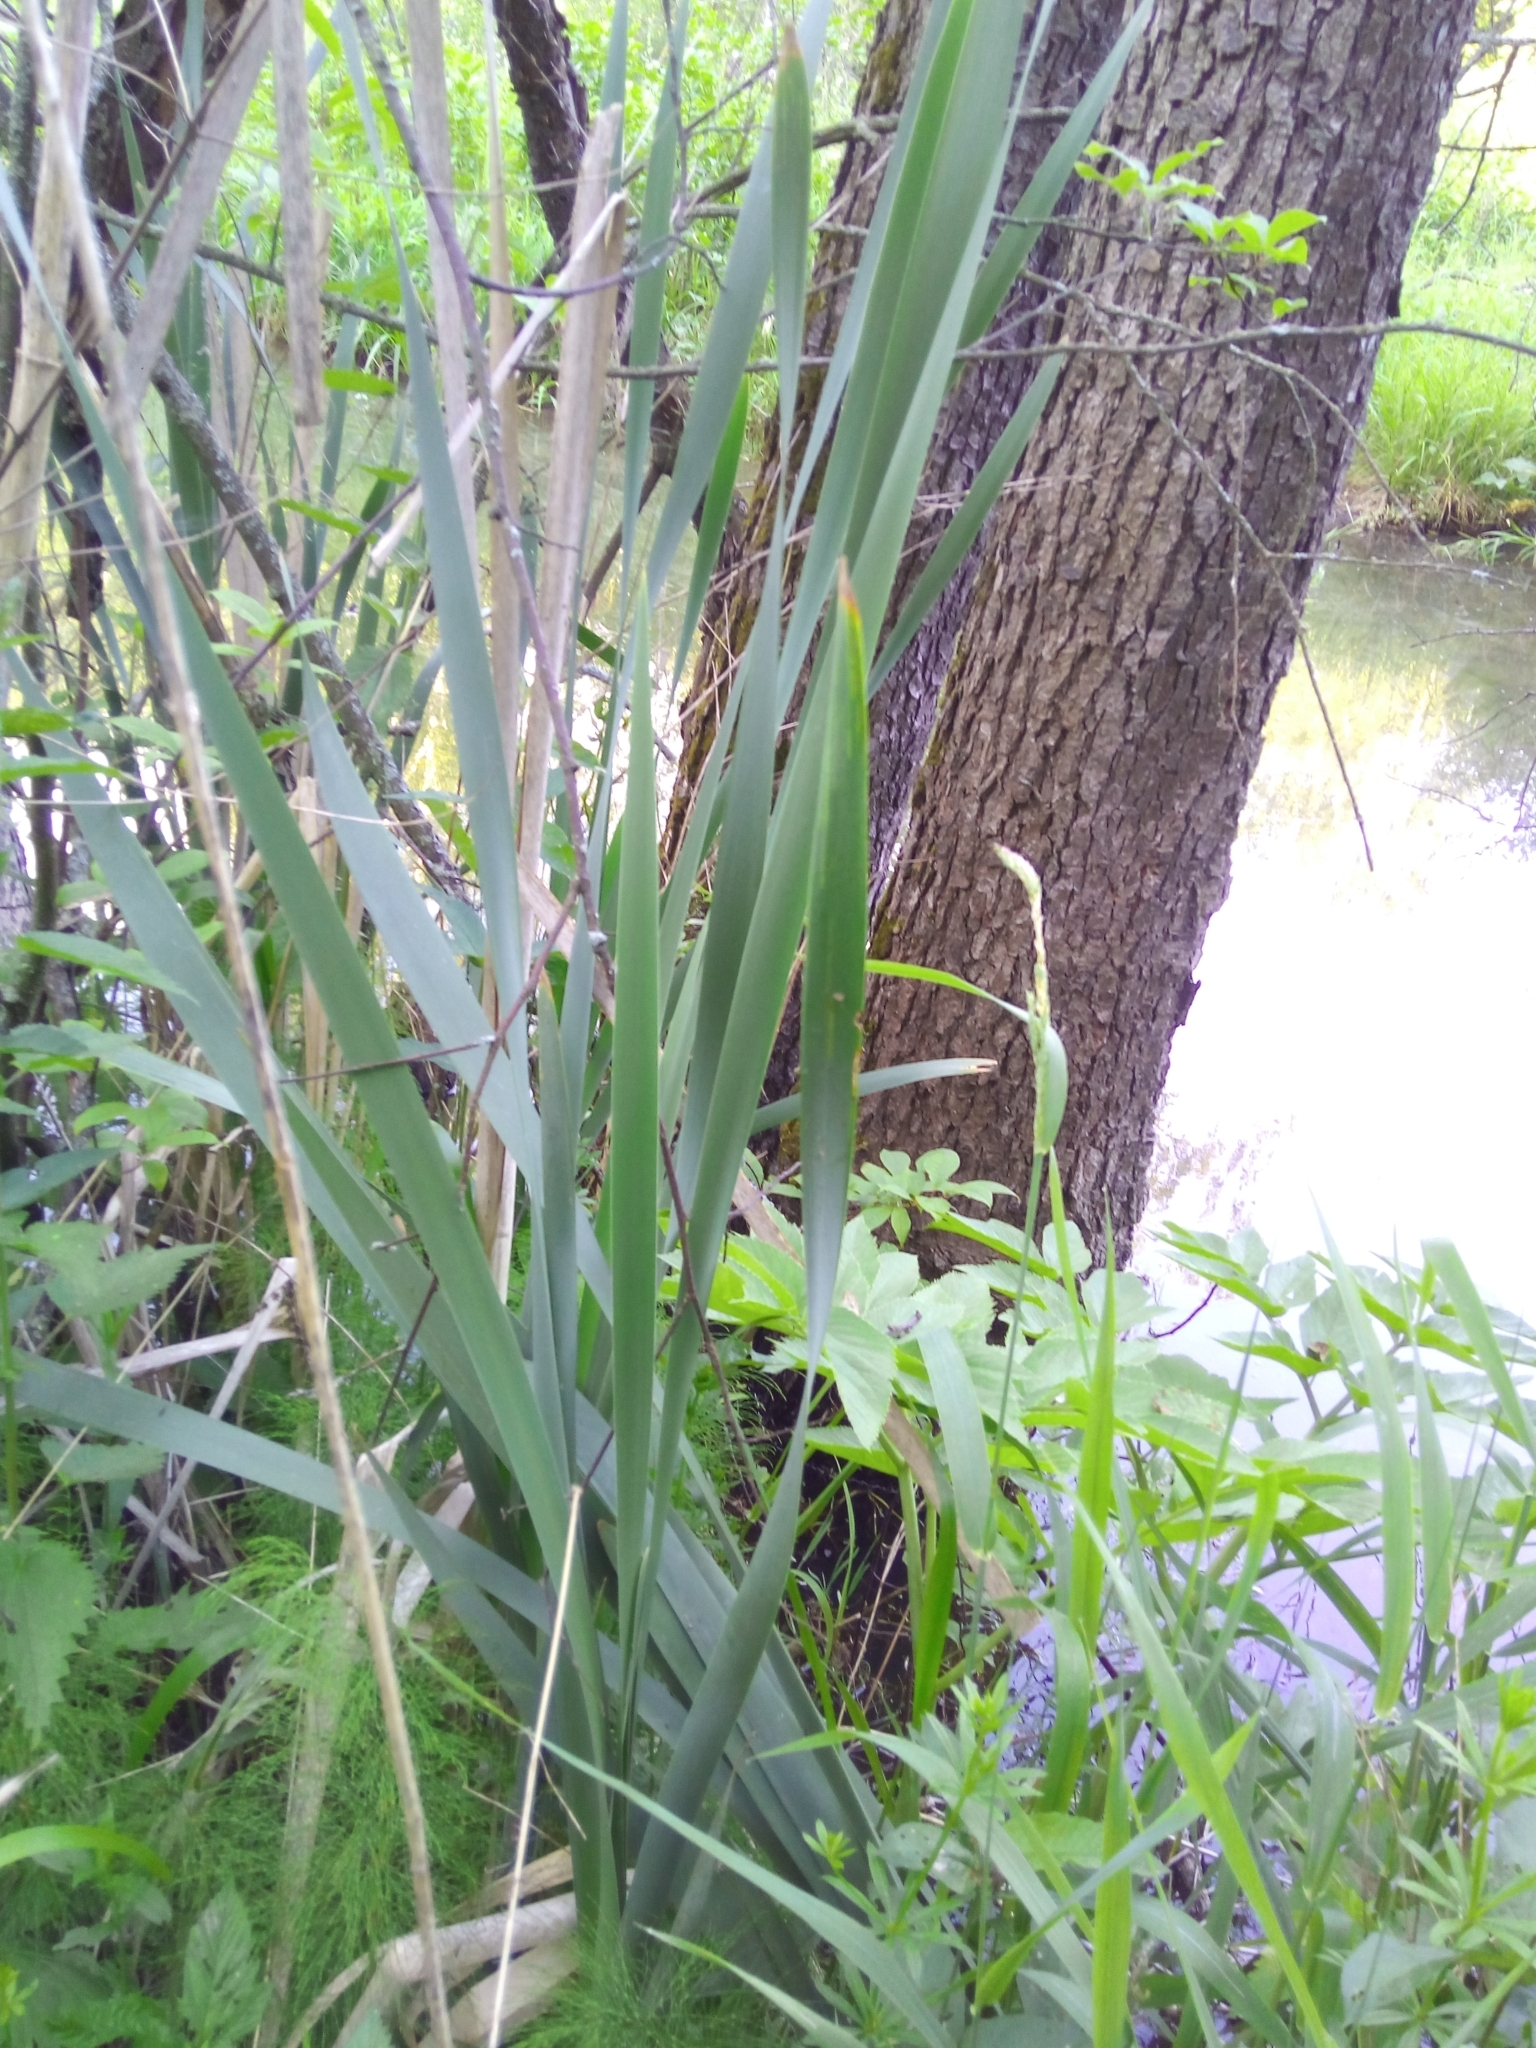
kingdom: Plantae
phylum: Tracheophyta
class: Liliopsida
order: Poales
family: Typhaceae
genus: Typha
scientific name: Typha latifolia
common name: Broadleaf cattail
